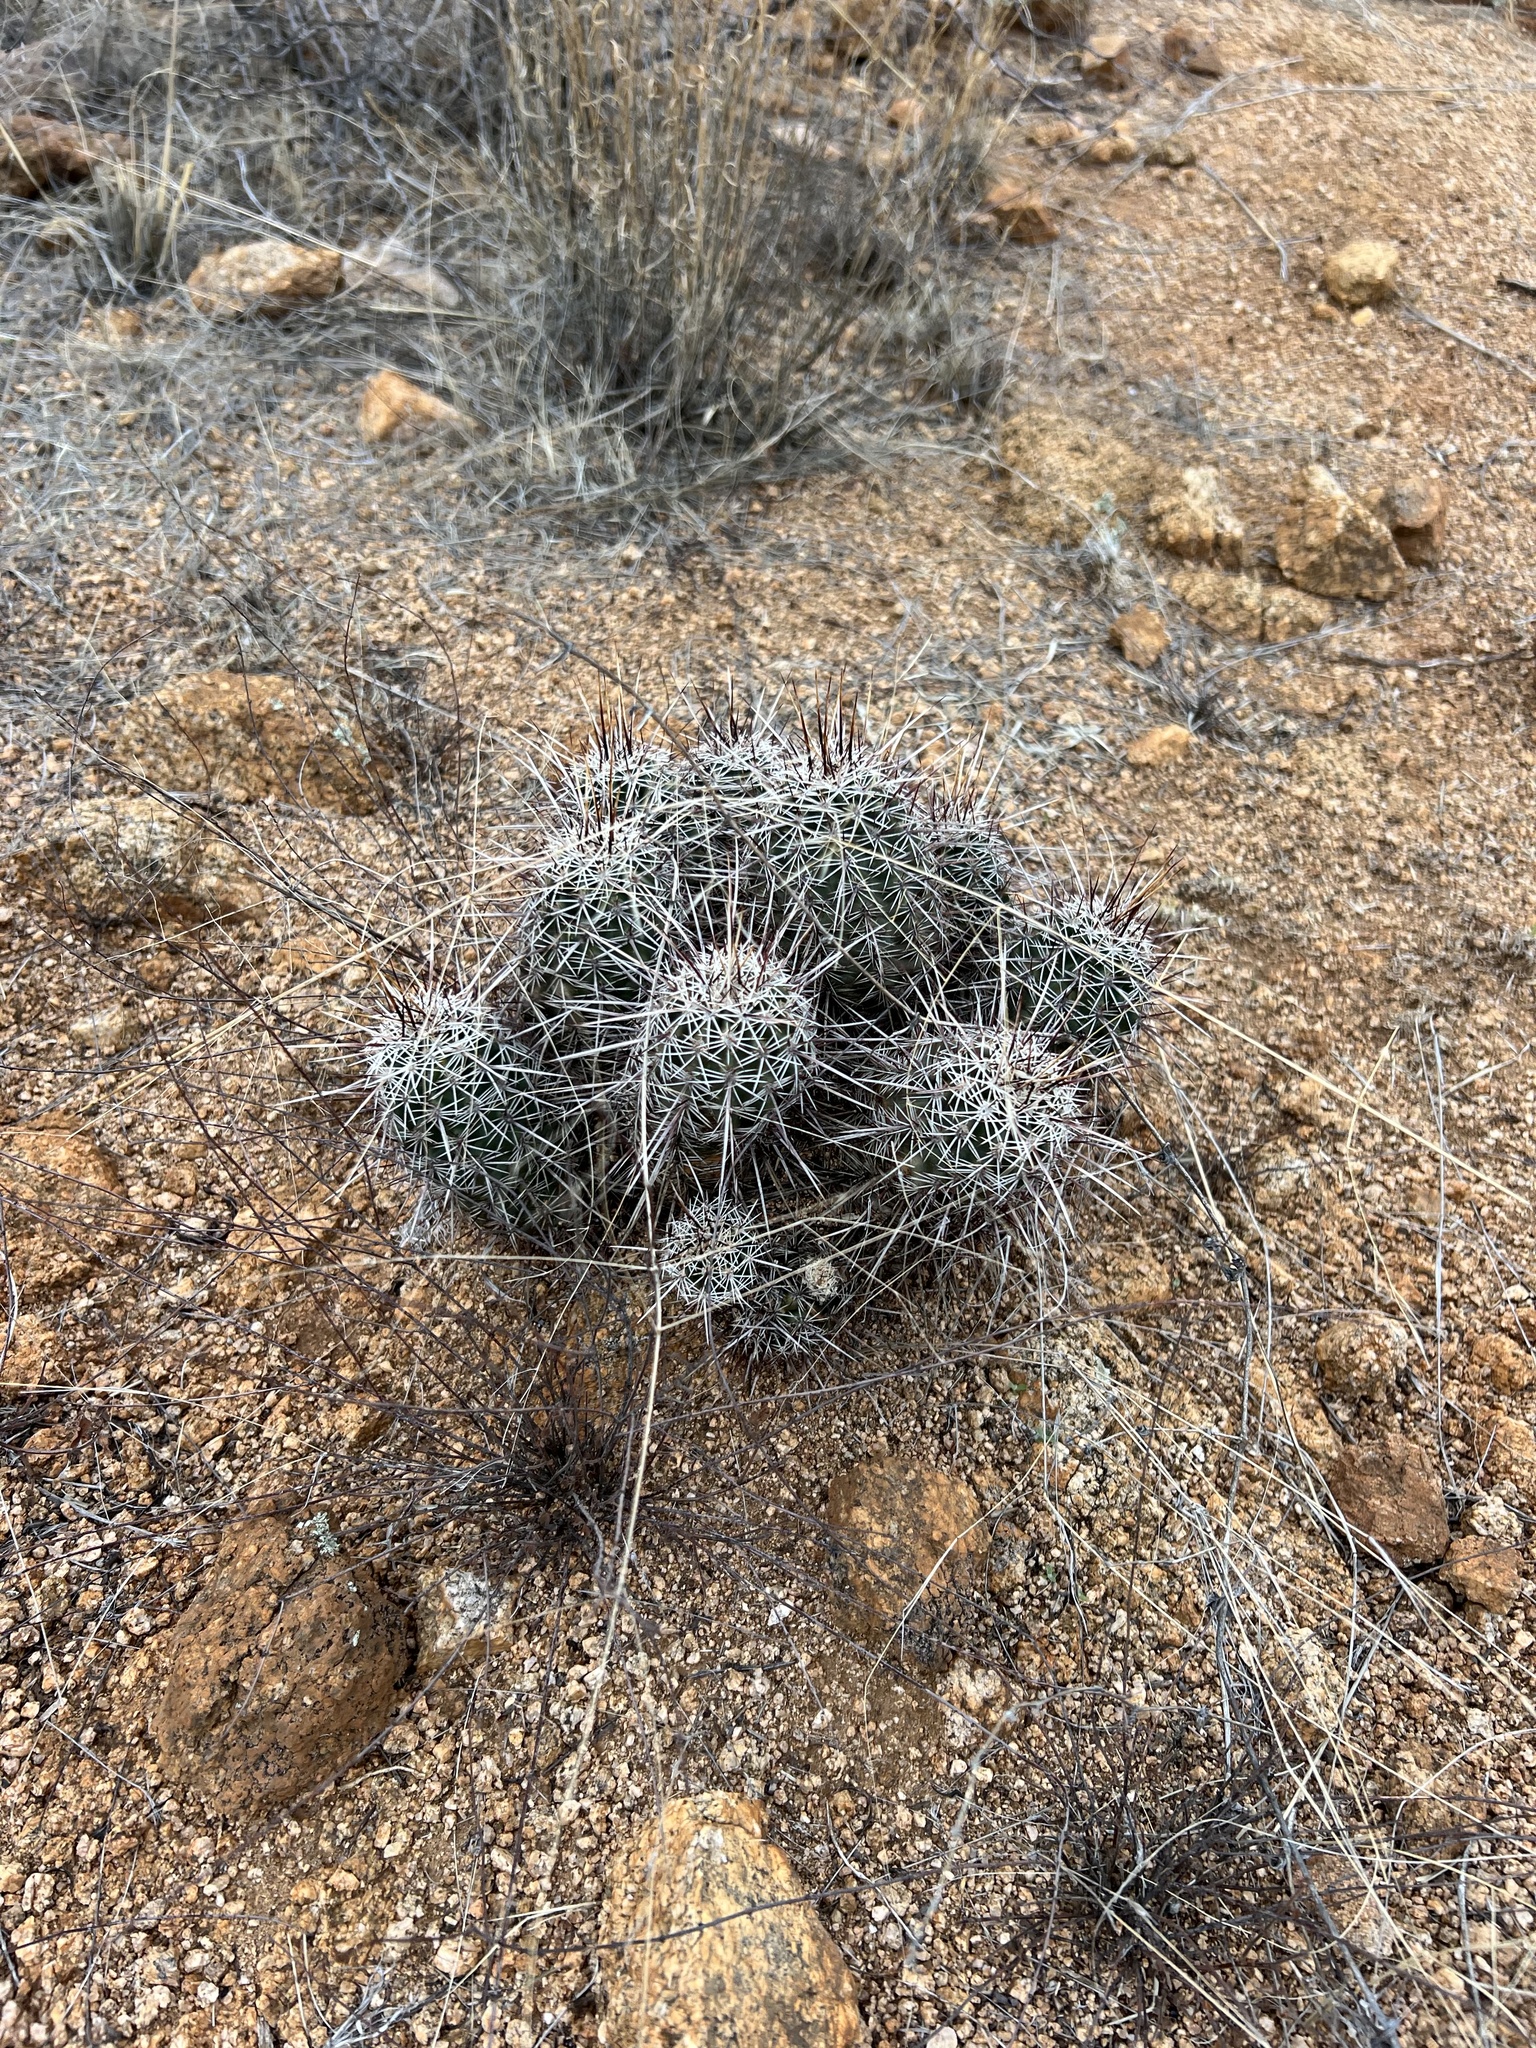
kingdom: Plantae
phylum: Tracheophyta
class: Magnoliopsida
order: Caryophyllales
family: Cactaceae
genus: Echinocereus
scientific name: Echinocereus fasciculatus
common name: Bundle hedgehog
